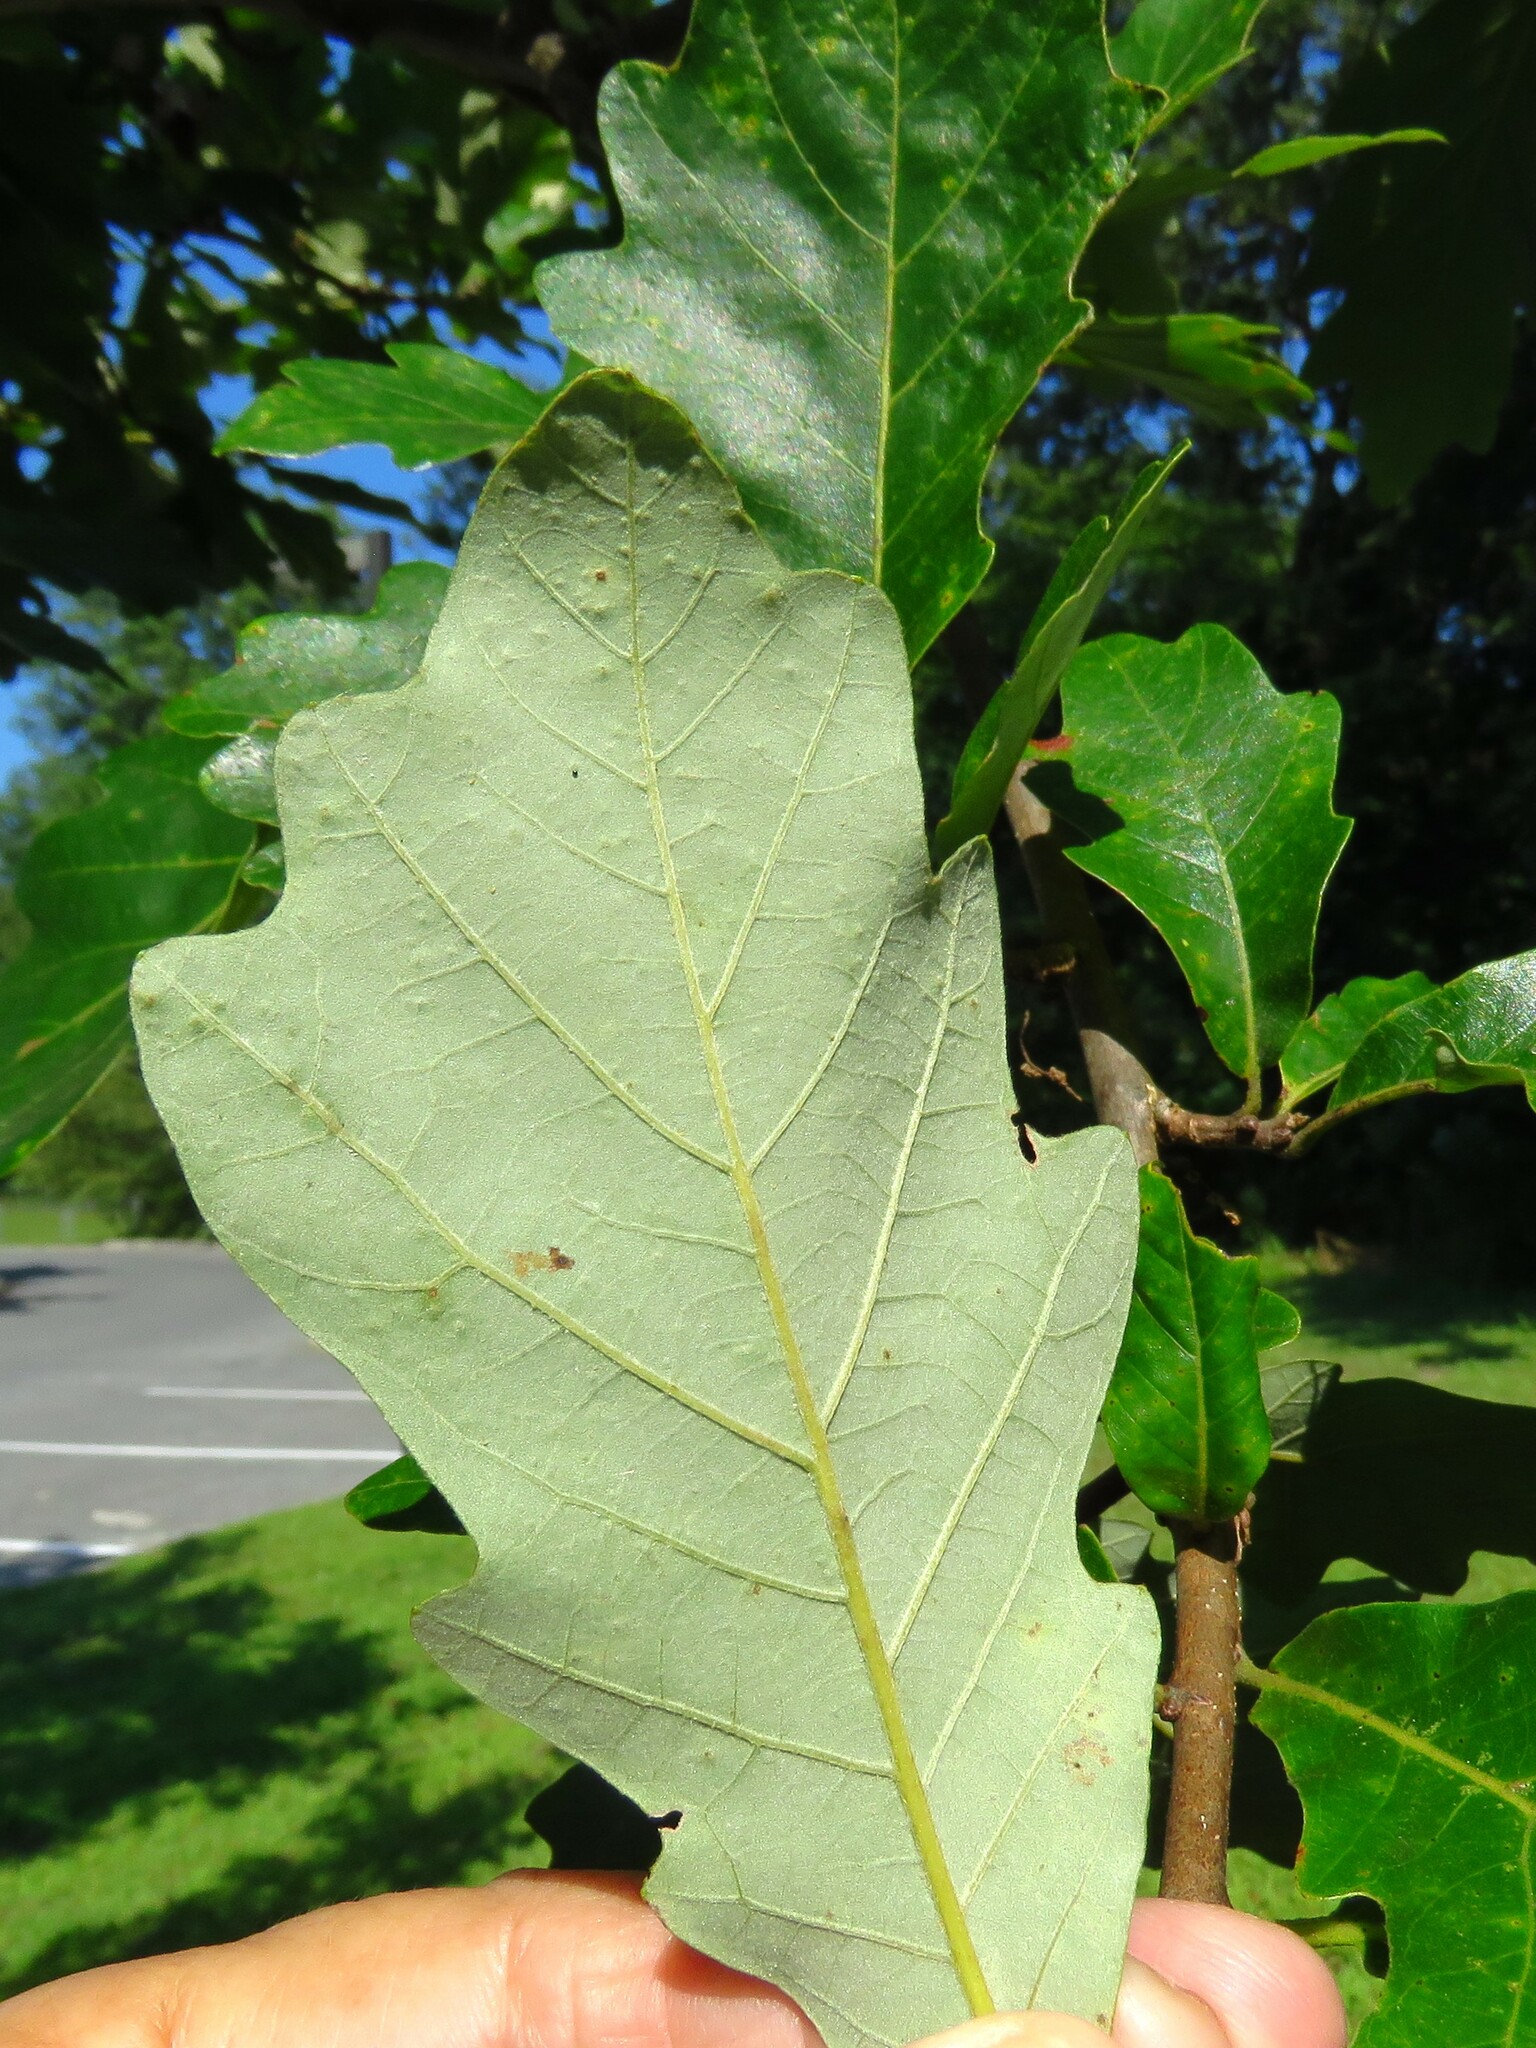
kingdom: Plantae
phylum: Tracheophyta
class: Magnoliopsida
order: Fagales
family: Fagaceae
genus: Quercus
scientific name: Quercus bicolor
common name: Swamp white oak
